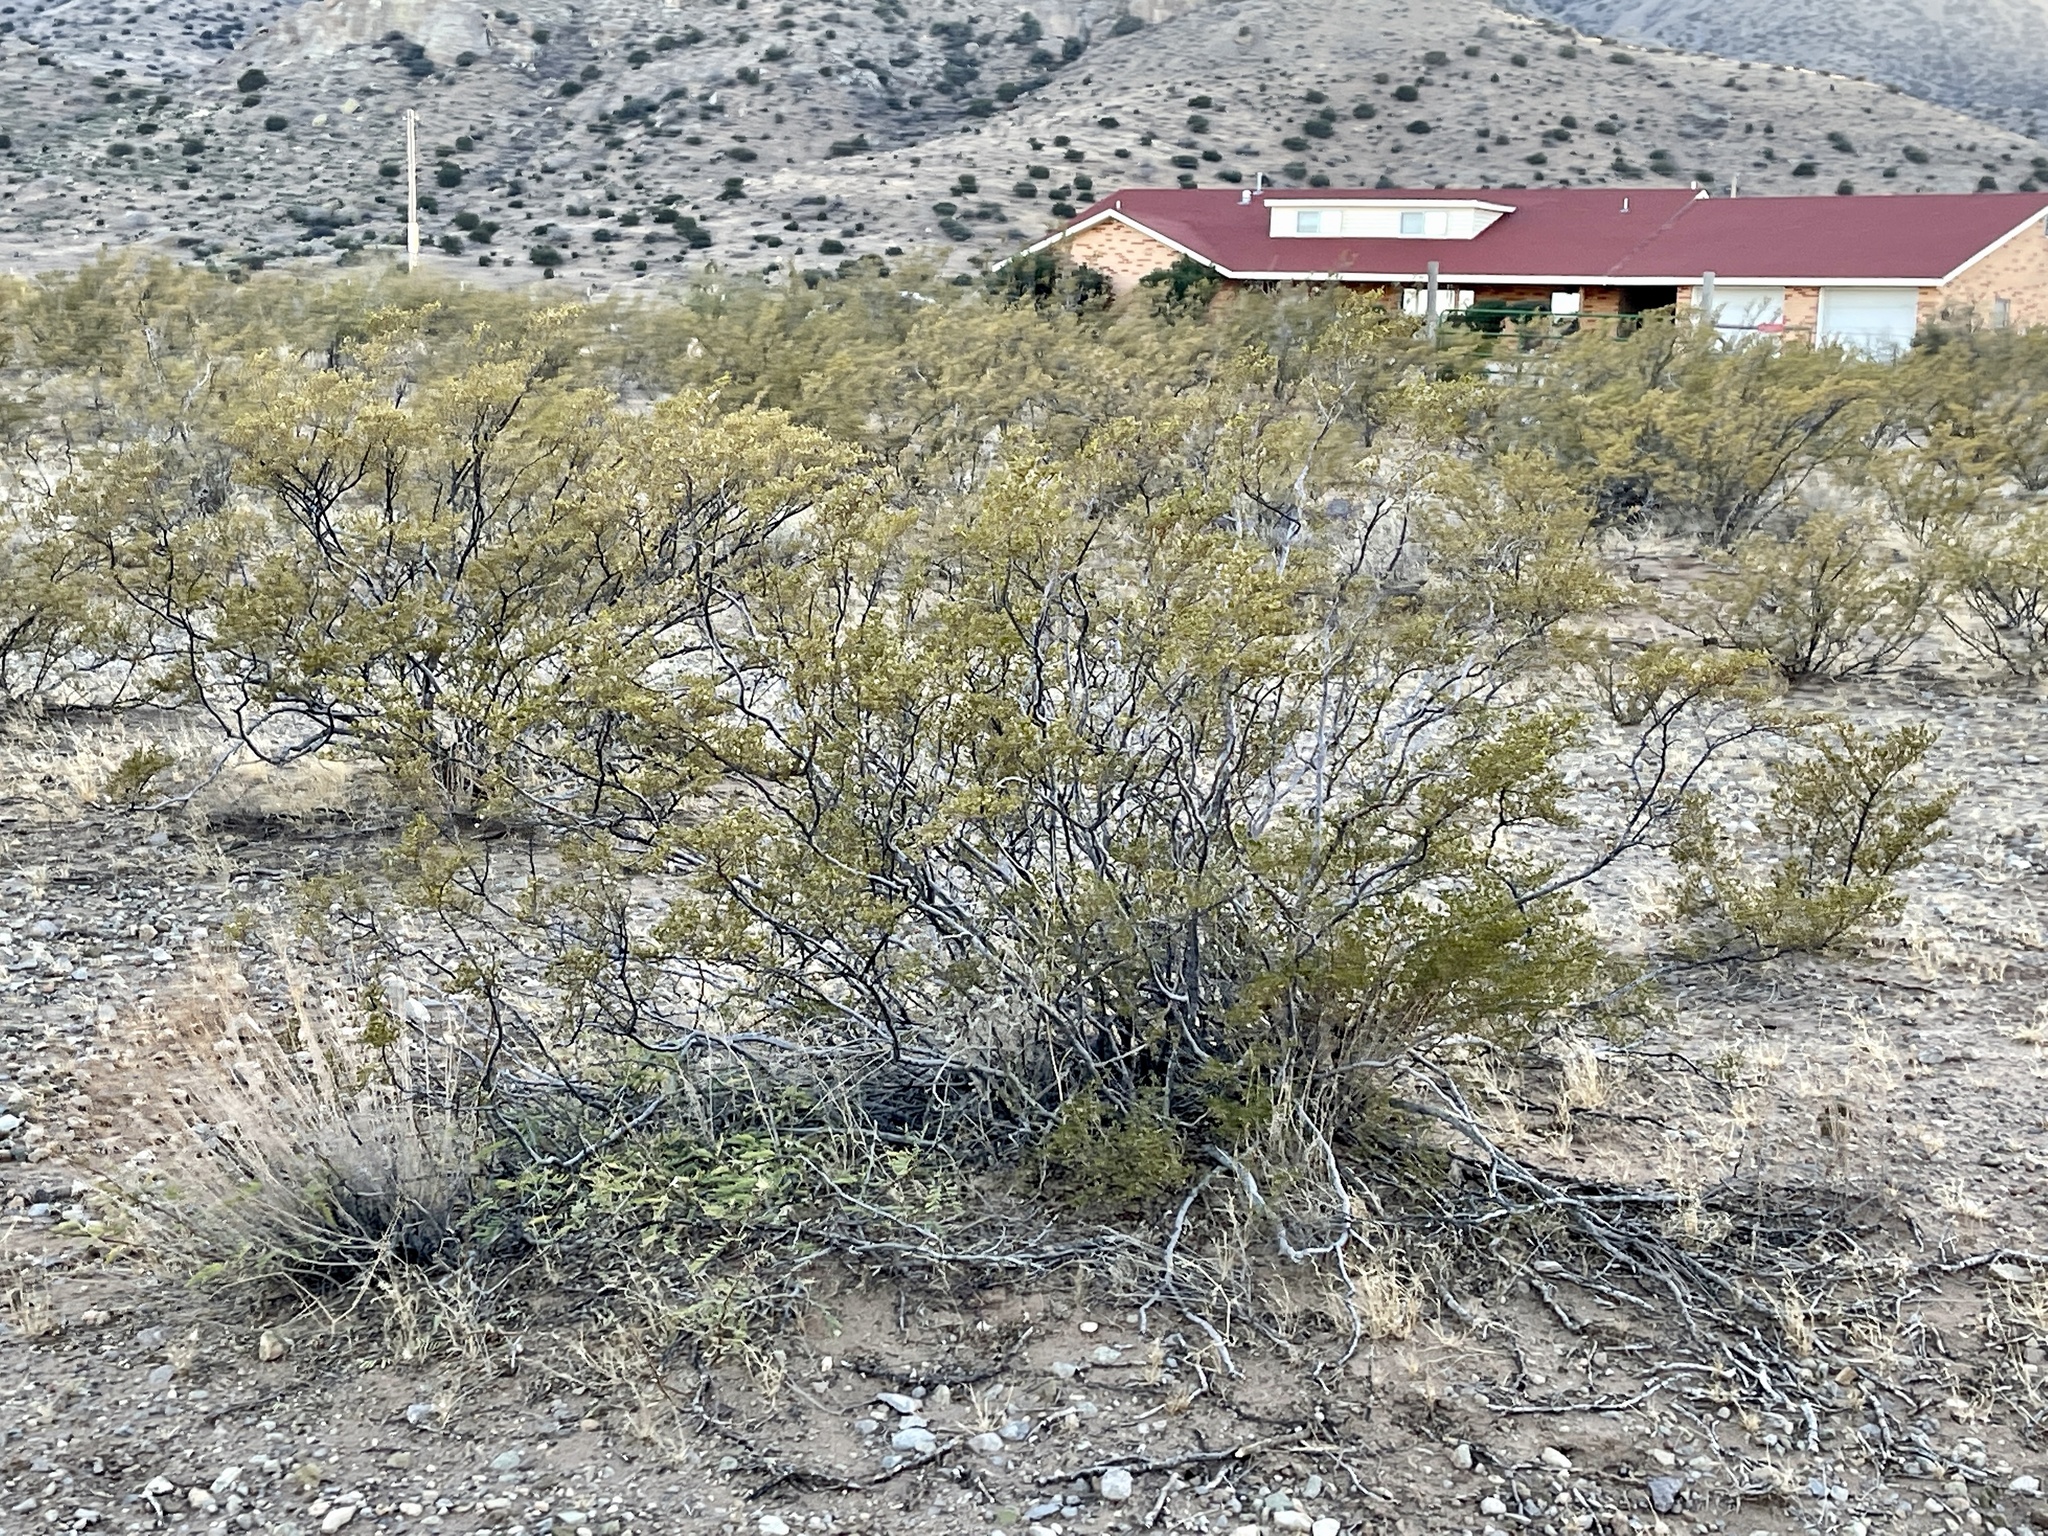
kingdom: Plantae
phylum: Tracheophyta
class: Magnoliopsida
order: Zygophyllales
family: Zygophyllaceae
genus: Larrea
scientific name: Larrea tridentata
